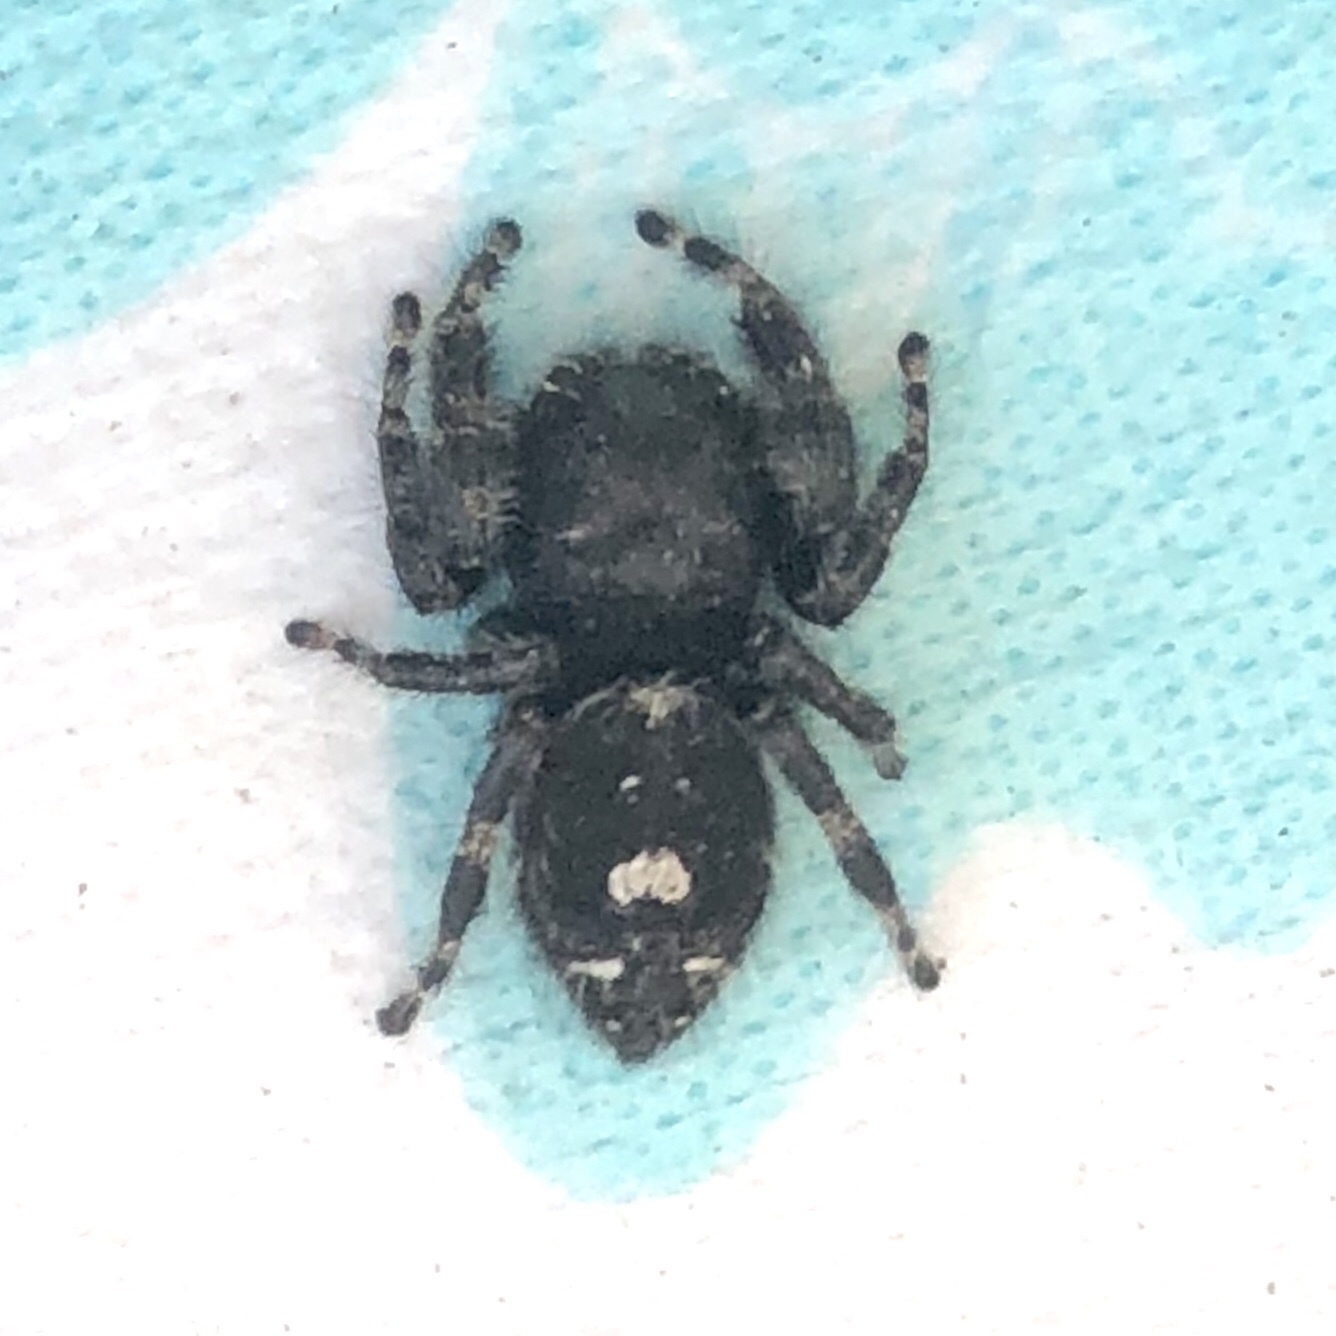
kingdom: Animalia
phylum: Arthropoda
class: Arachnida
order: Araneae
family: Salticidae
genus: Phidippus
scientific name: Phidippus audax
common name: Bold jumper
